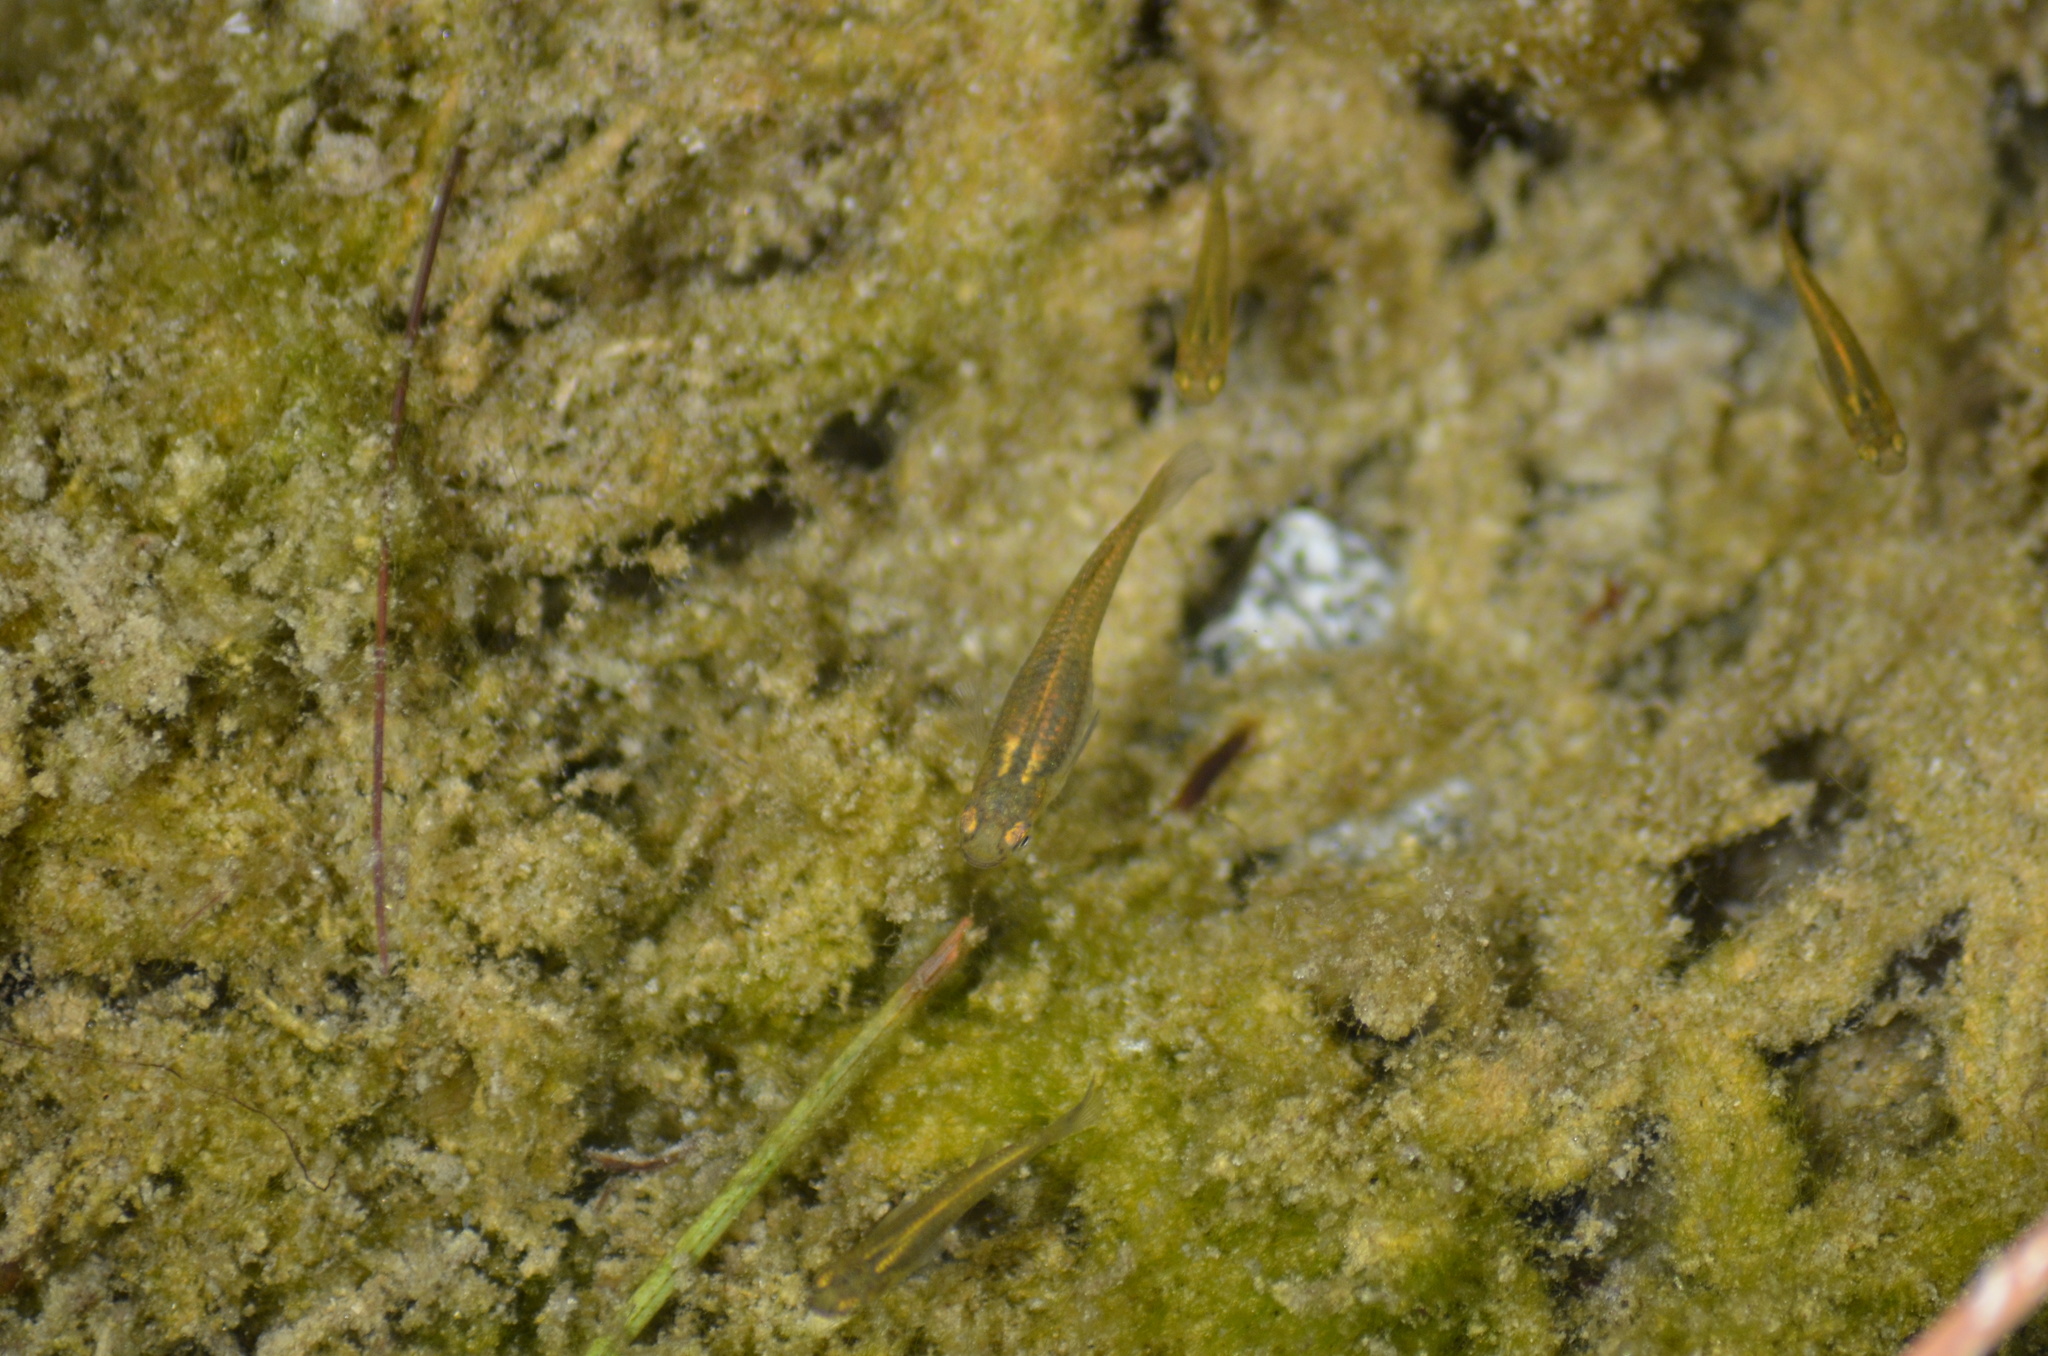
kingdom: Animalia
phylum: Chordata
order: Cyprinodontiformes
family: Poeciliidae
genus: Gambusia
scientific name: Gambusia holbrooki
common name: Eastern mosquitofish
